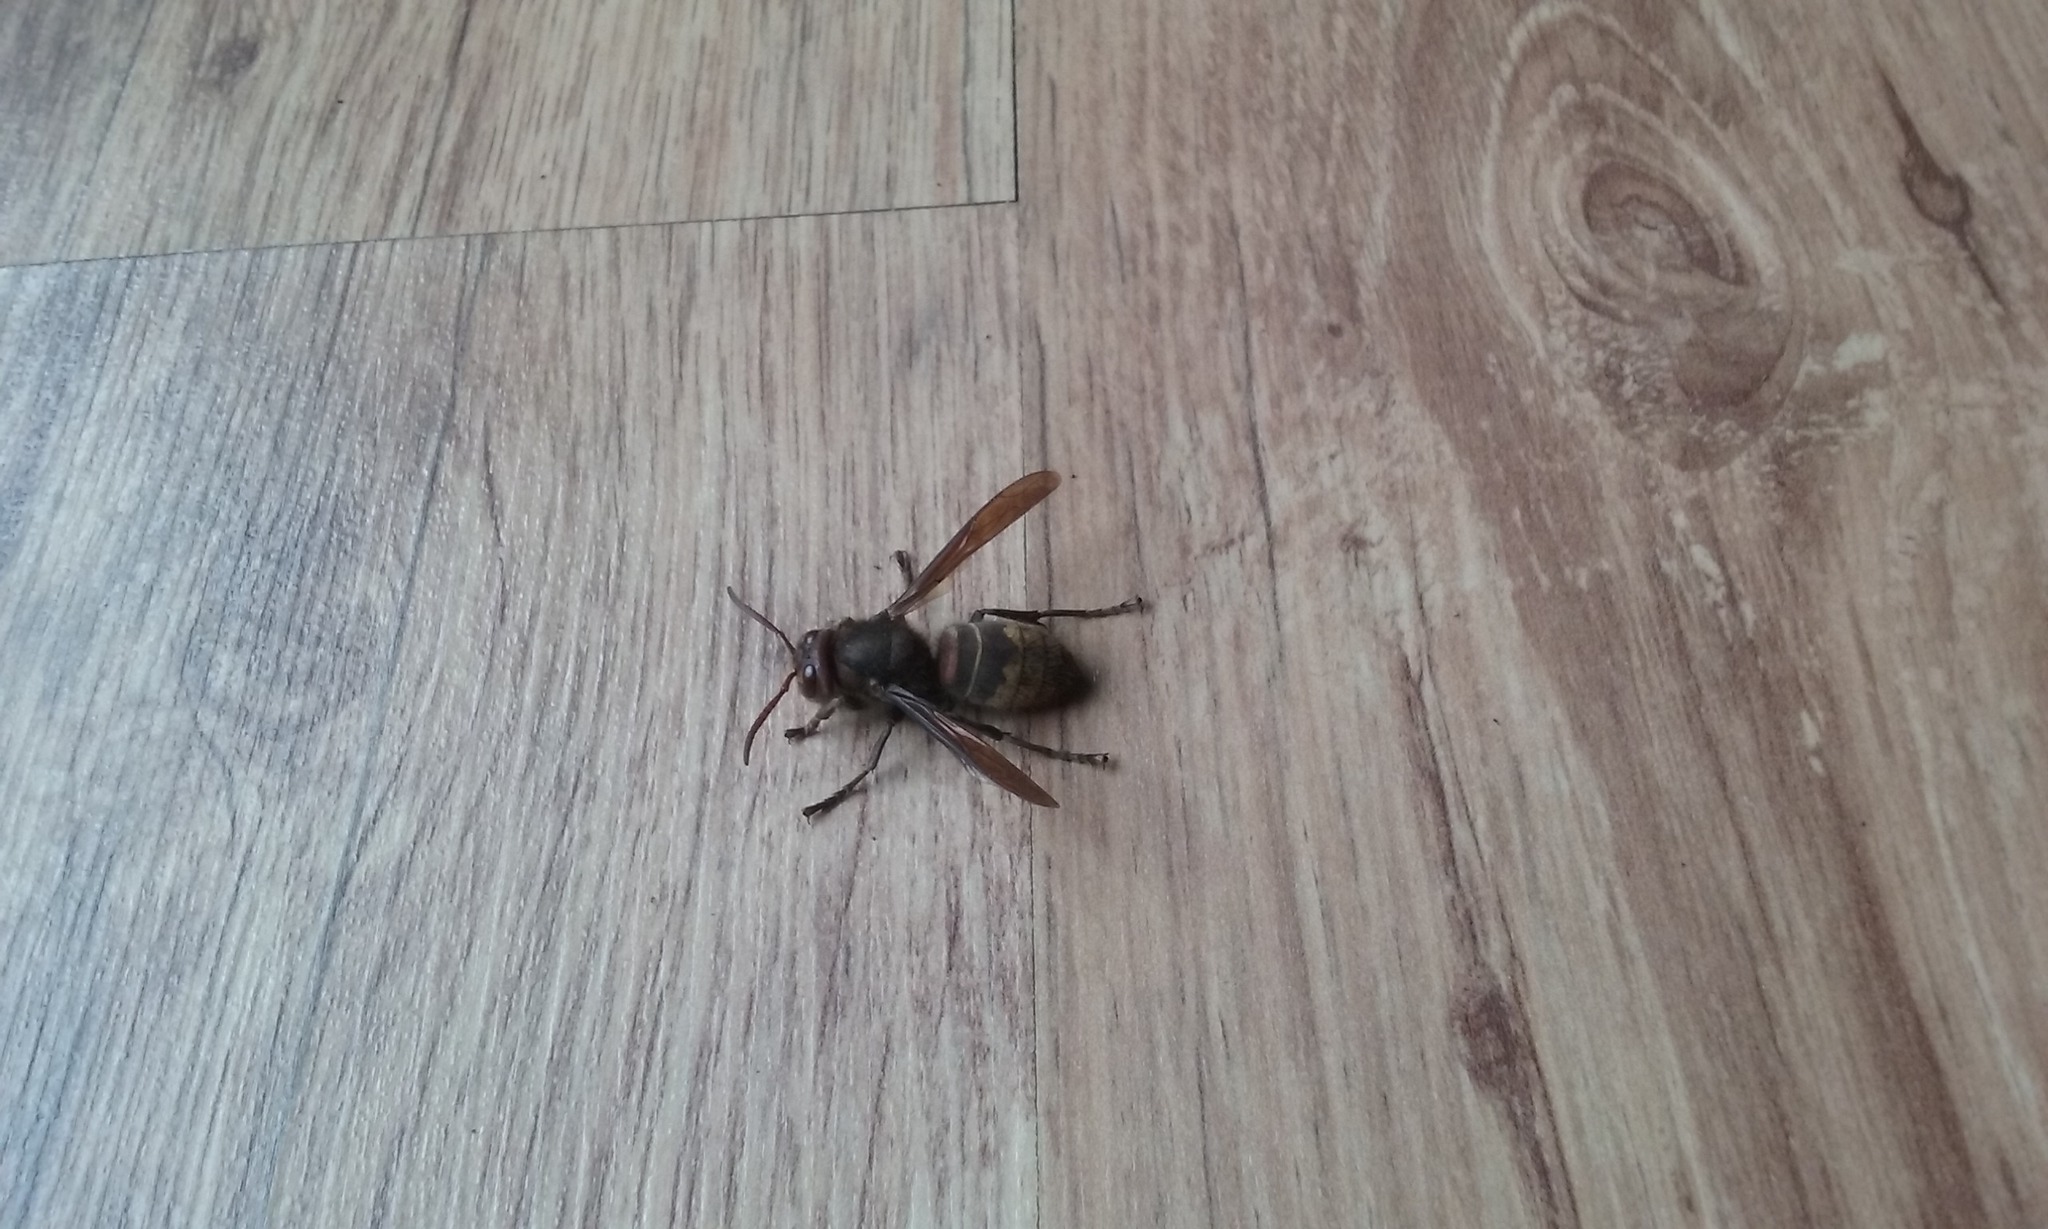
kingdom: Animalia
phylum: Arthropoda
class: Insecta
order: Hymenoptera
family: Vespidae
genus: Vespa
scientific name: Vespa crabro
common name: Hornet
